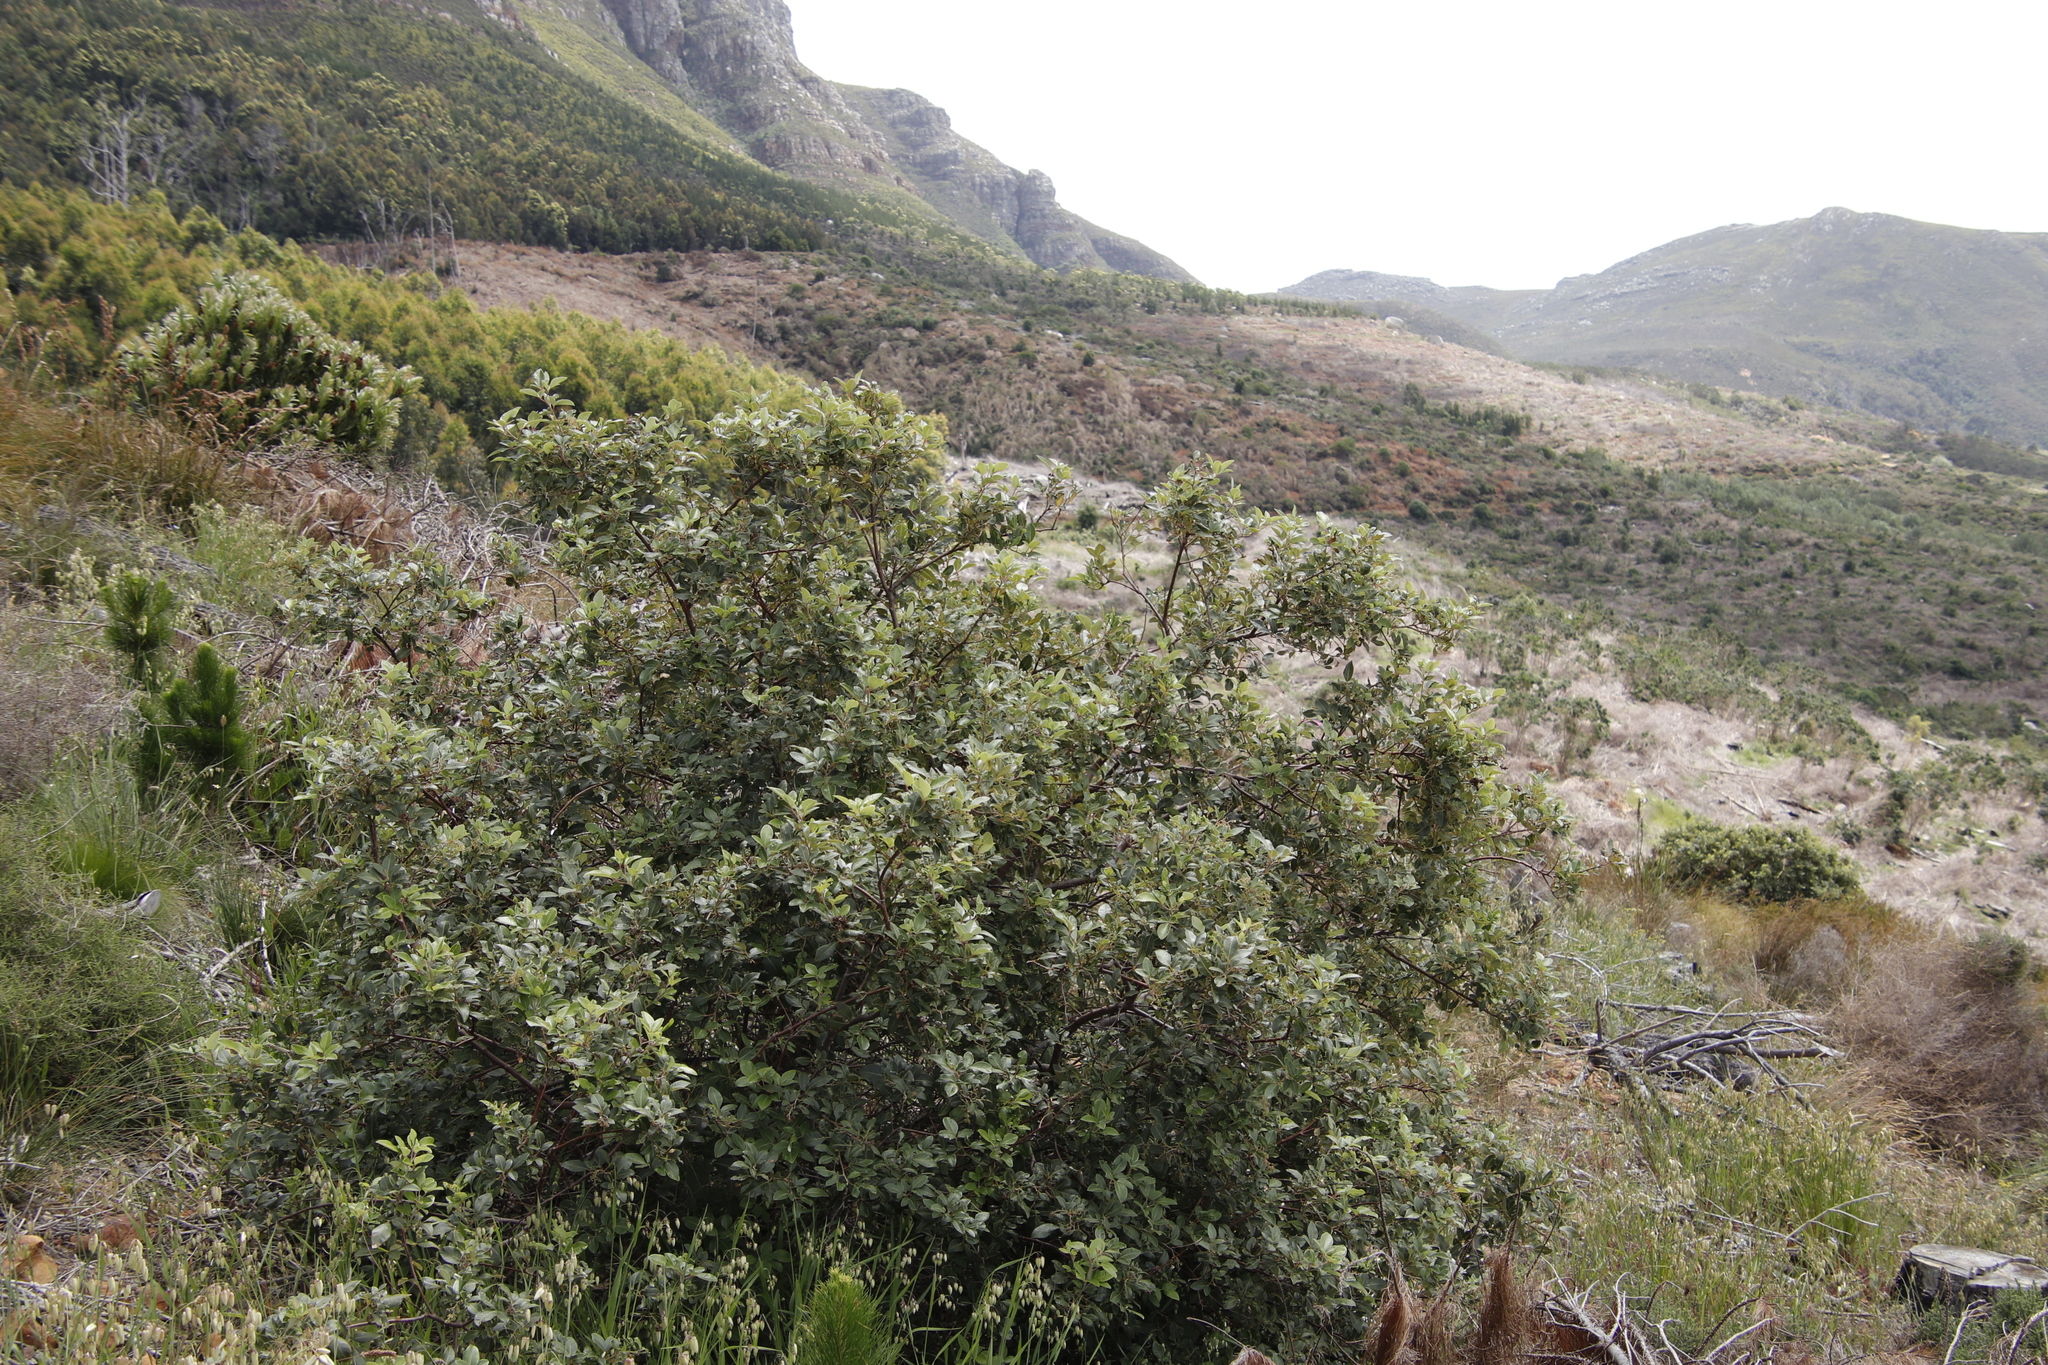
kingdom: Plantae
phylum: Tracheophyta
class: Magnoliopsida
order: Sapindales
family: Anacardiaceae
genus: Searsia
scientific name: Searsia tomentosa
